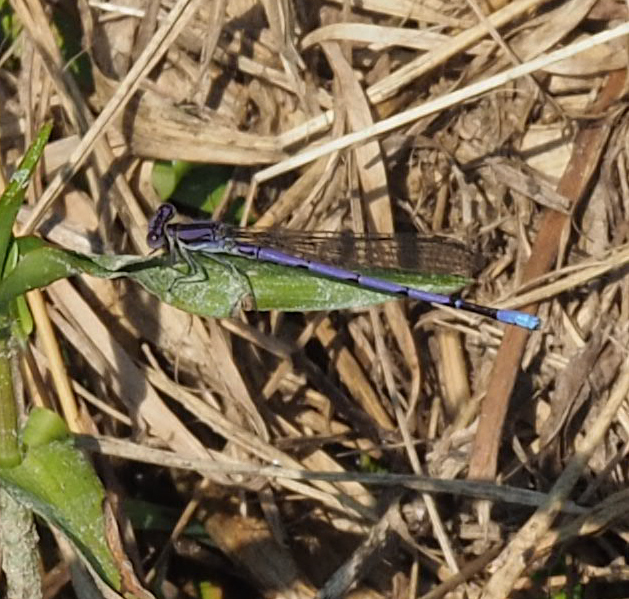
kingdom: Animalia
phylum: Arthropoda
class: Insecta
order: Odonata
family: Coenagrionidae
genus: Argia
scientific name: Argia fumipennis
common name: Variable dancer
